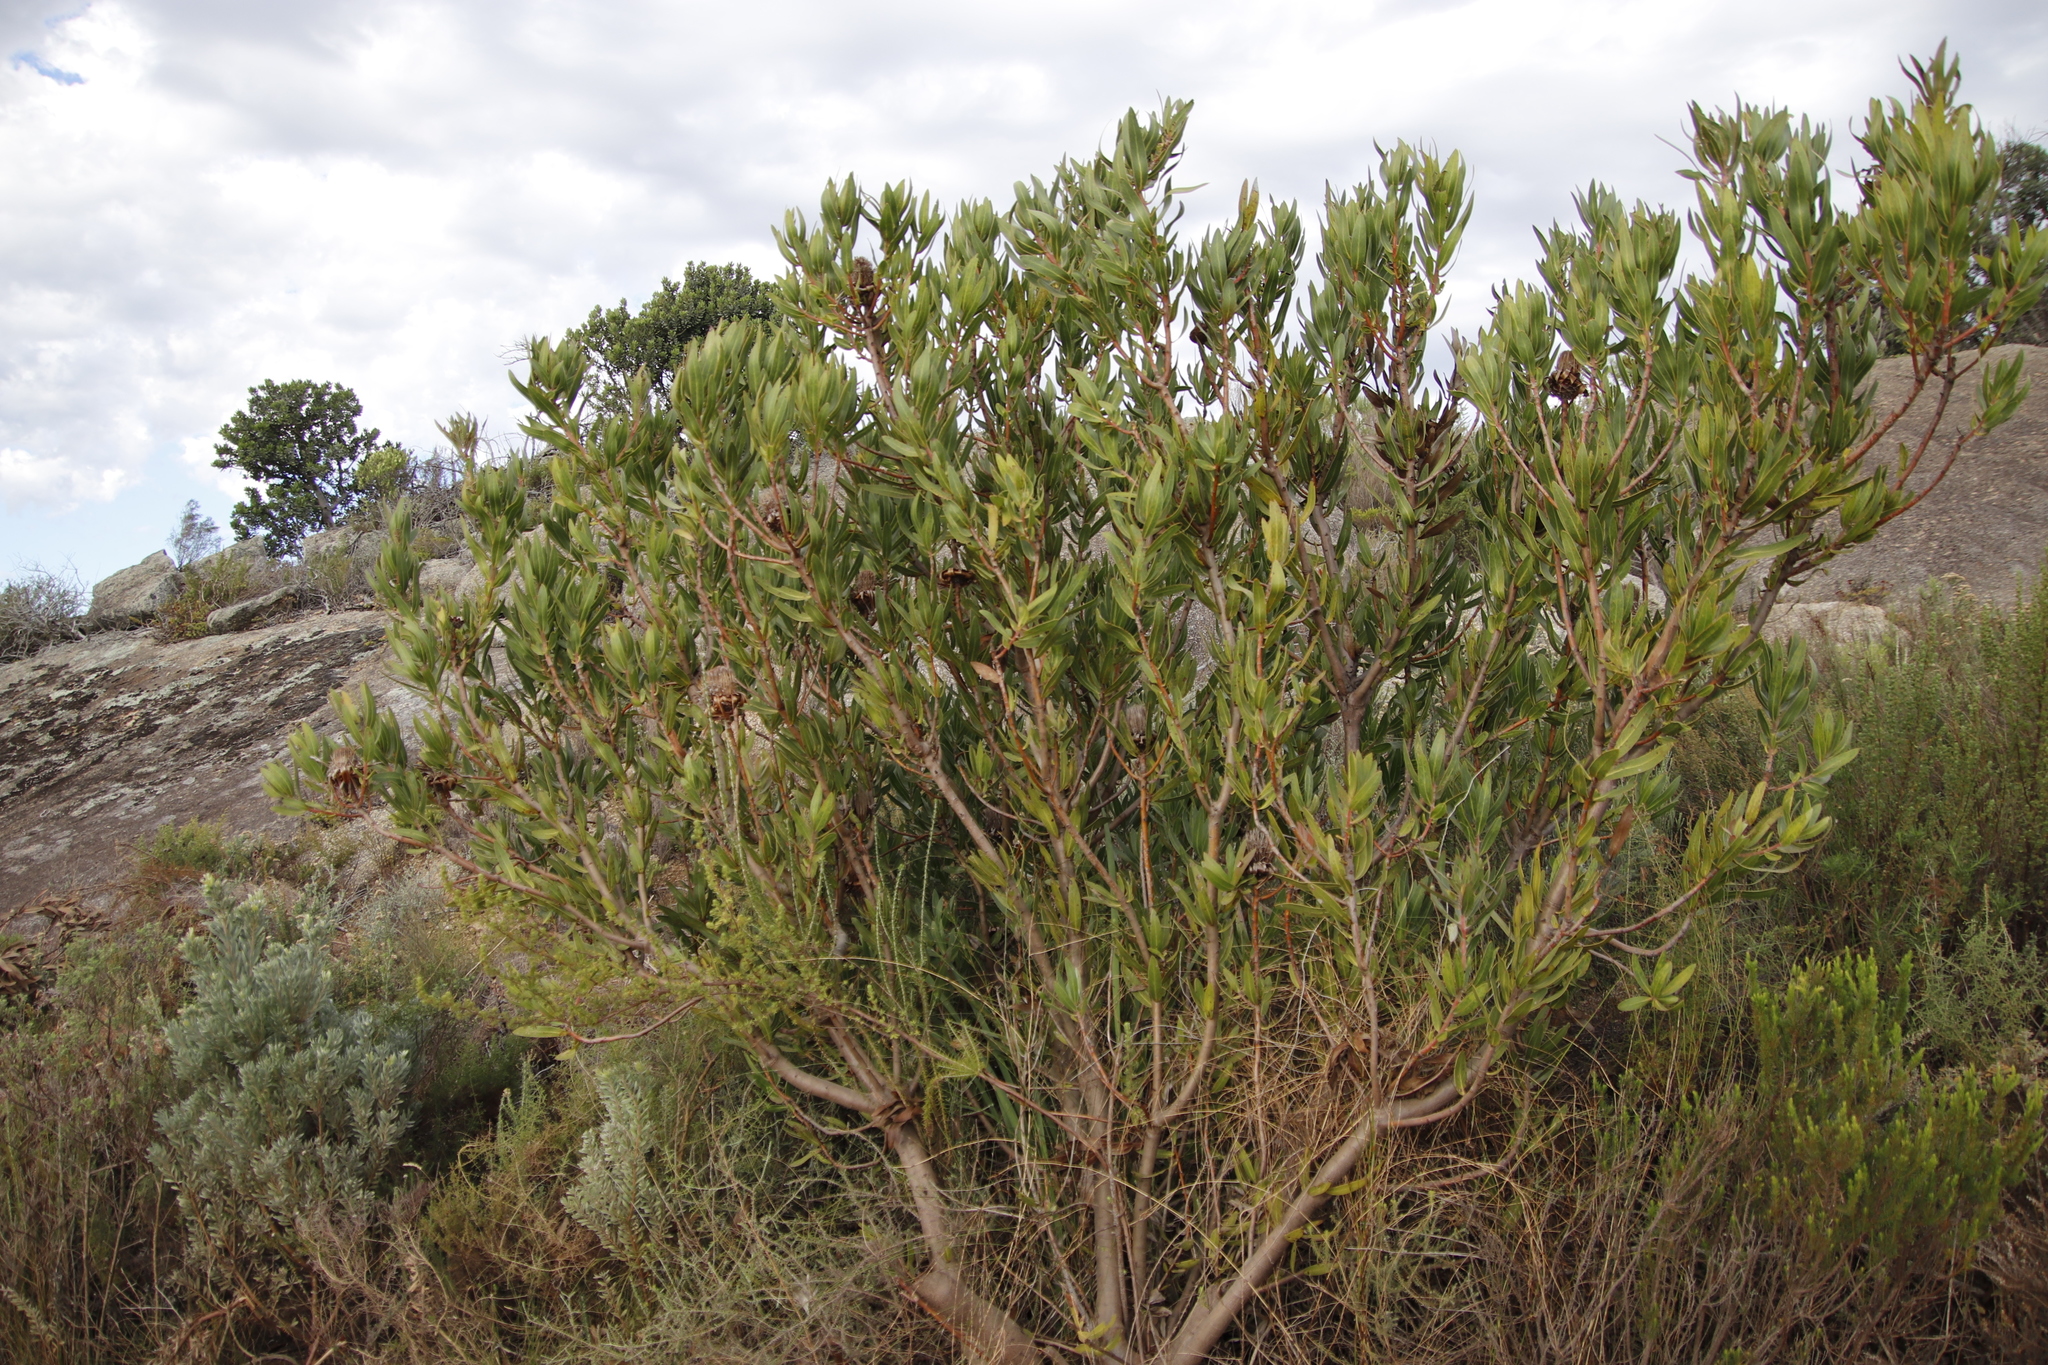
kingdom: Plantae
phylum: Tracheophyta
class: Magnoliopsida
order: Proteales
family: Proteaceae
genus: Protea
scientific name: Protea
